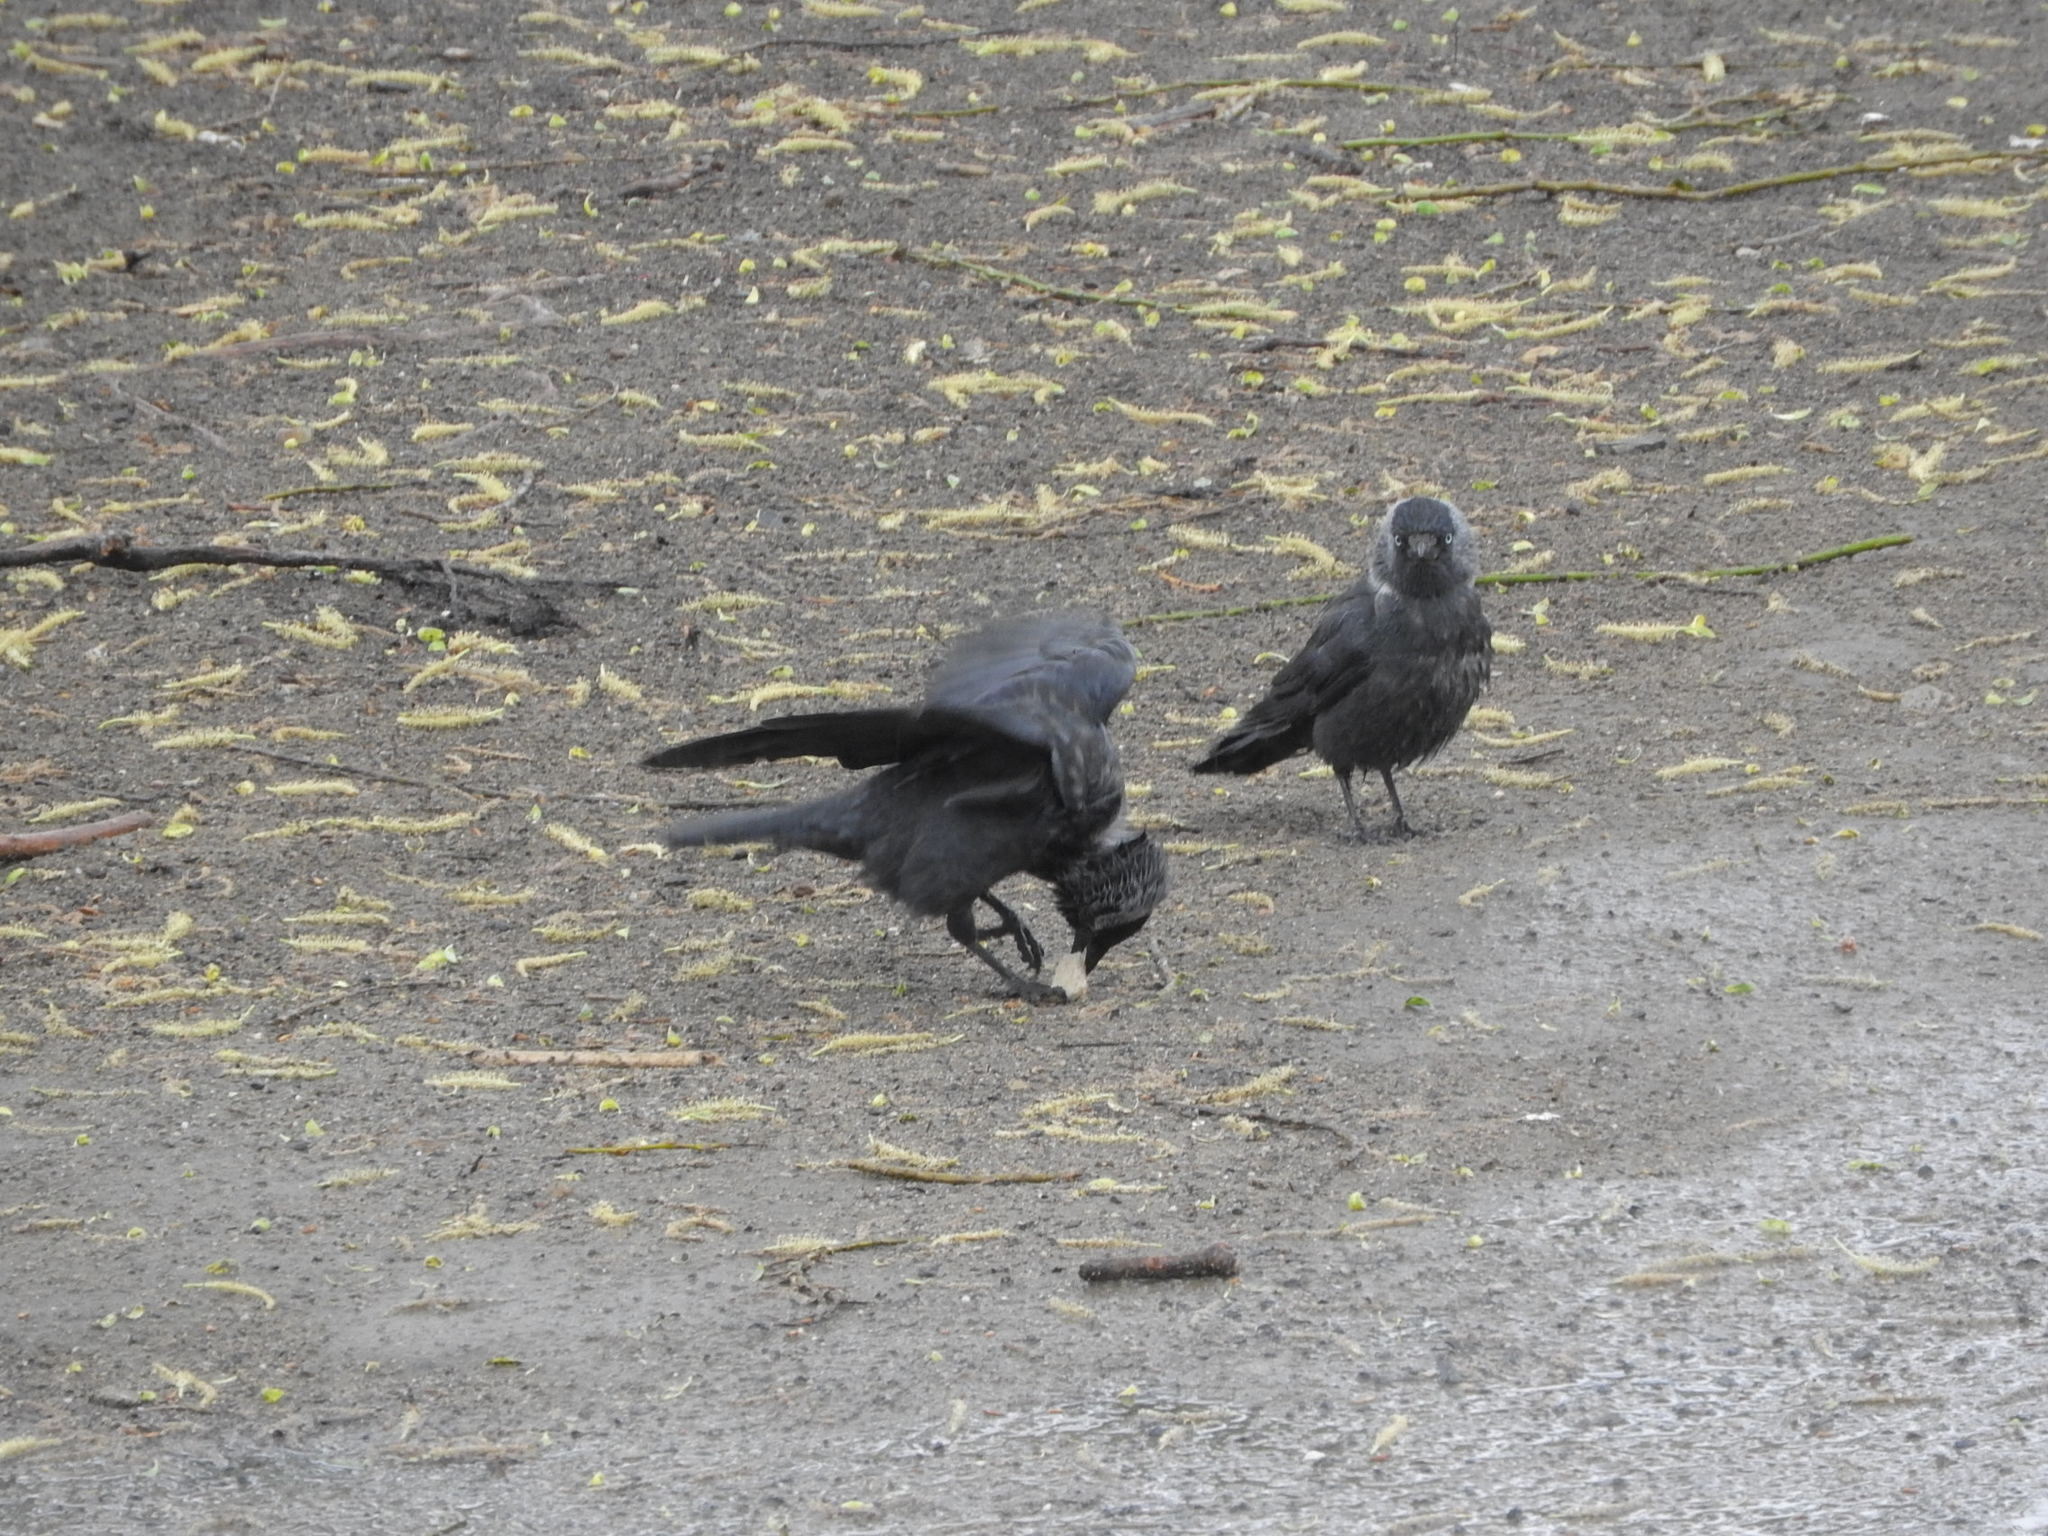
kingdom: Animalia
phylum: Chordata
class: Aves
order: Passeriformes
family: Corvidae
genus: Coloeus
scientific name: Coloeus monedula
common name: Western jackdaw
